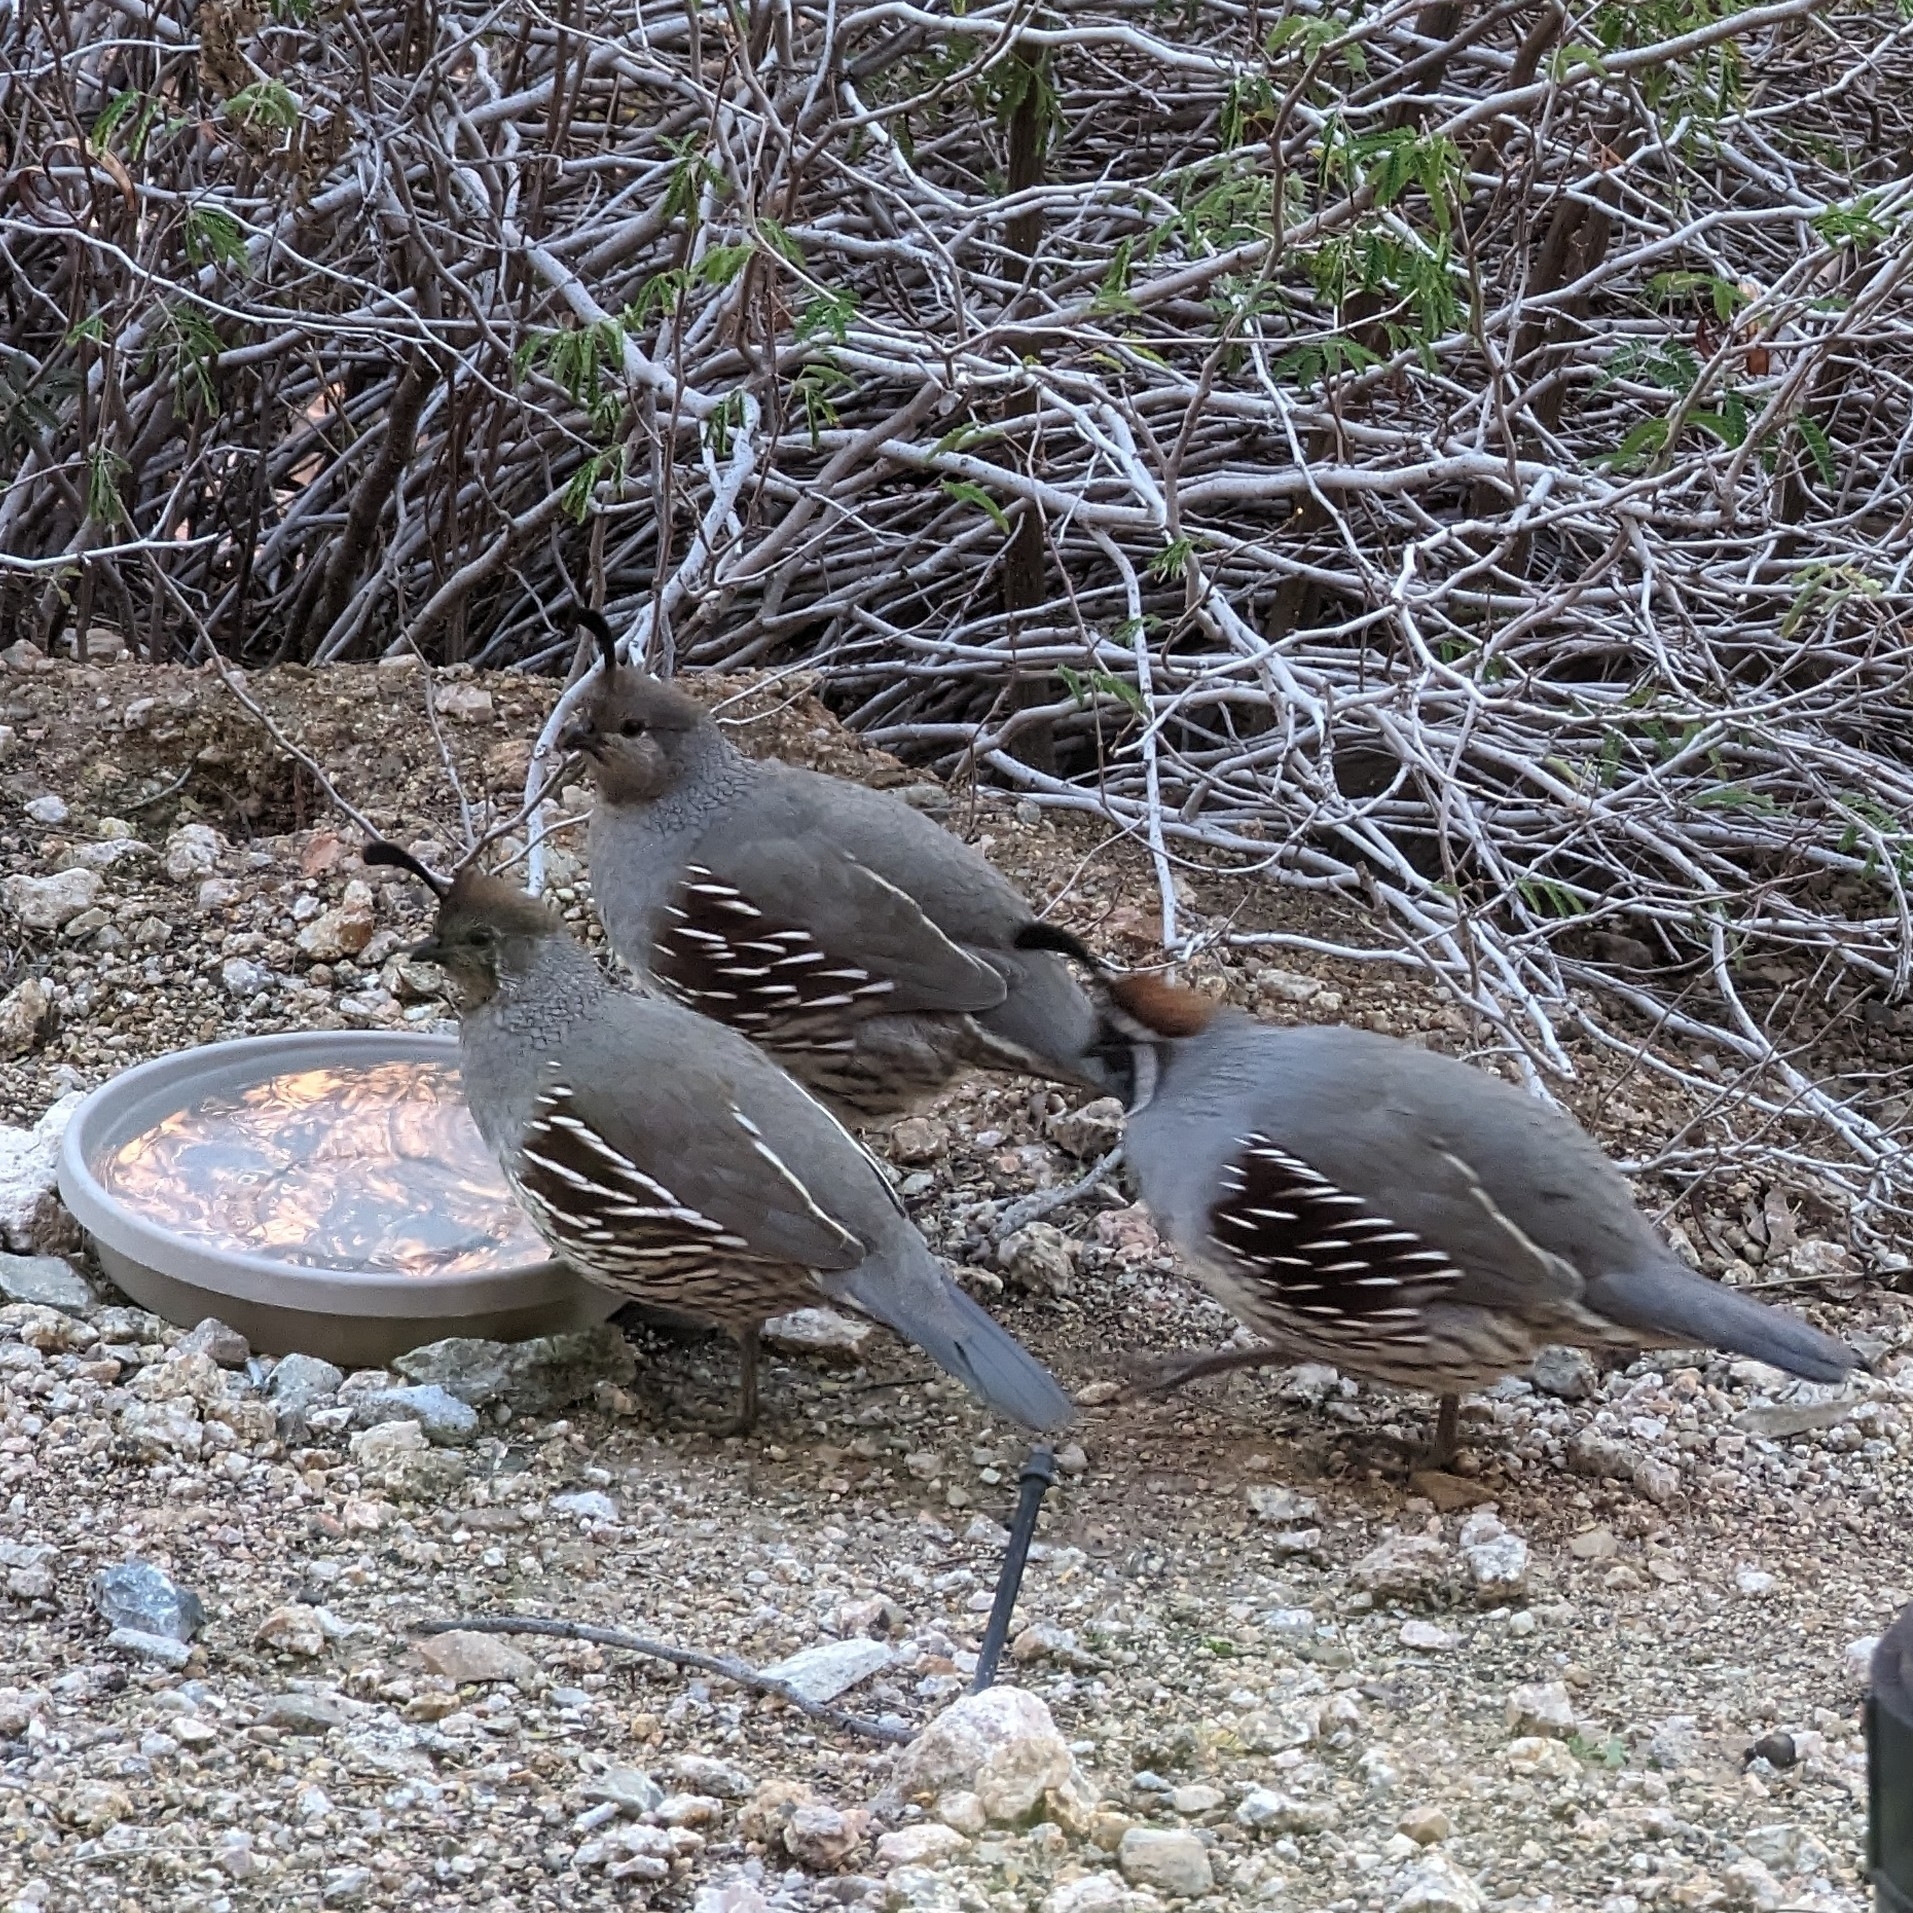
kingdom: Animalia
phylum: Chordata
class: Aves
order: Galliformes
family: Odontophoridae
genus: Callipepla
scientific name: Callipepla gambelii
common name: Gambel's quail
